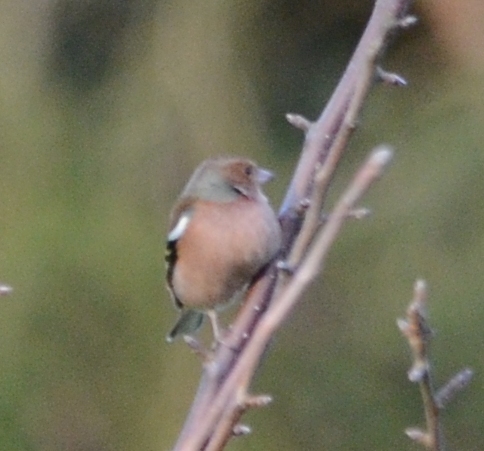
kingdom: Animalia
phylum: Chordata
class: Aves
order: Passeriformes
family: Fringillidae
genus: Fringilla
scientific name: Fringilla coelebs
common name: Common chaffinch
